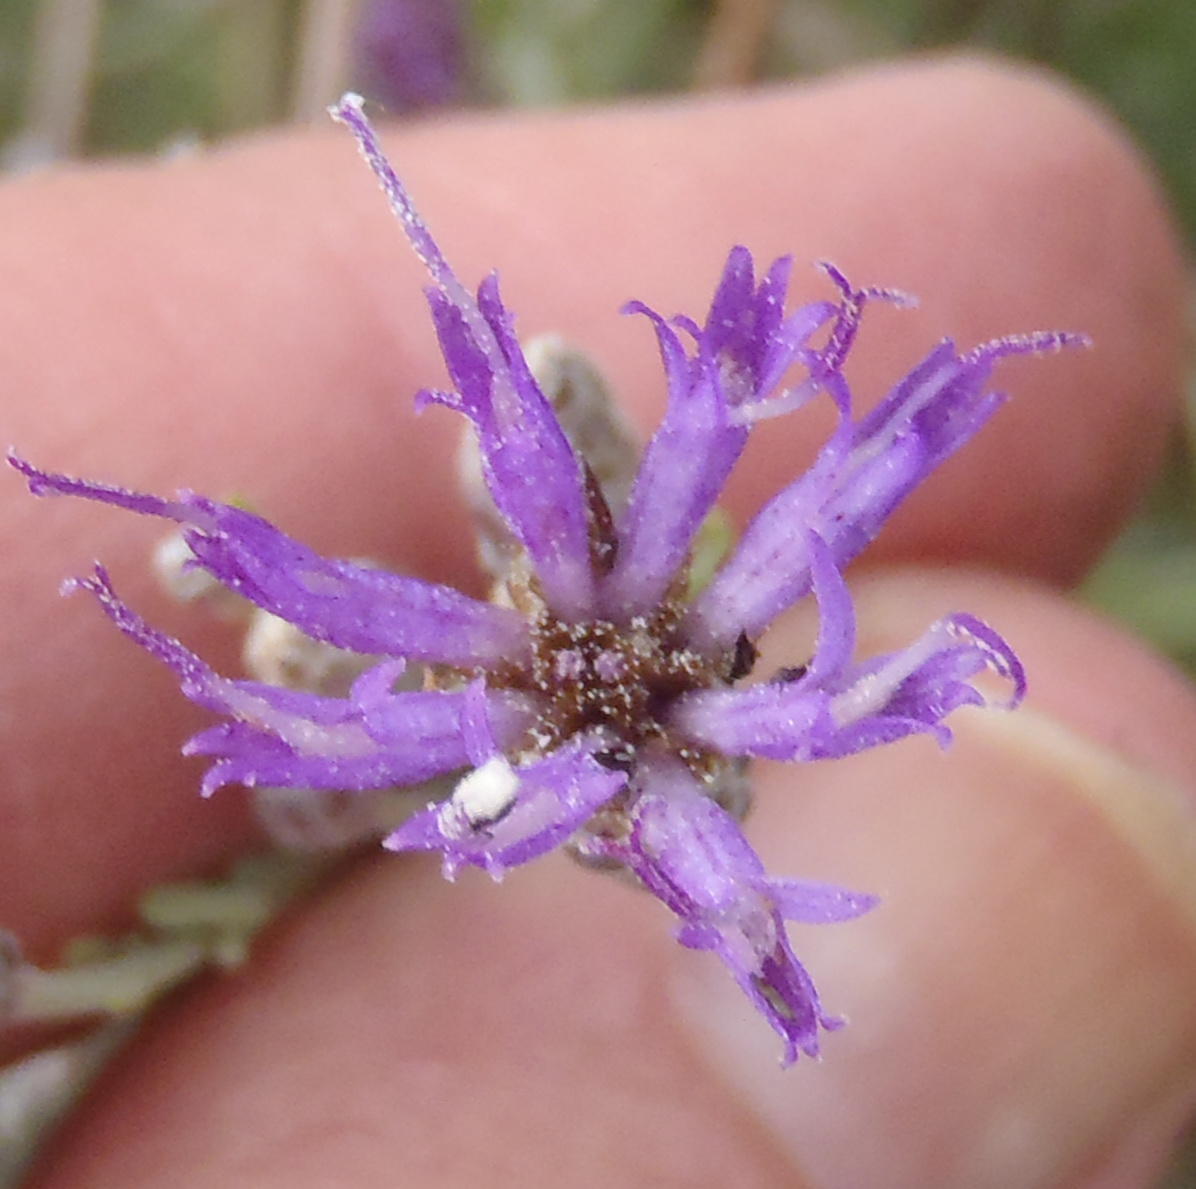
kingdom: Plantae
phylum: Tracheophyta
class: Magnoliopsida
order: Asterales
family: Asteraceae
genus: Oocephala
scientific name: Oocephala staehelinoides
